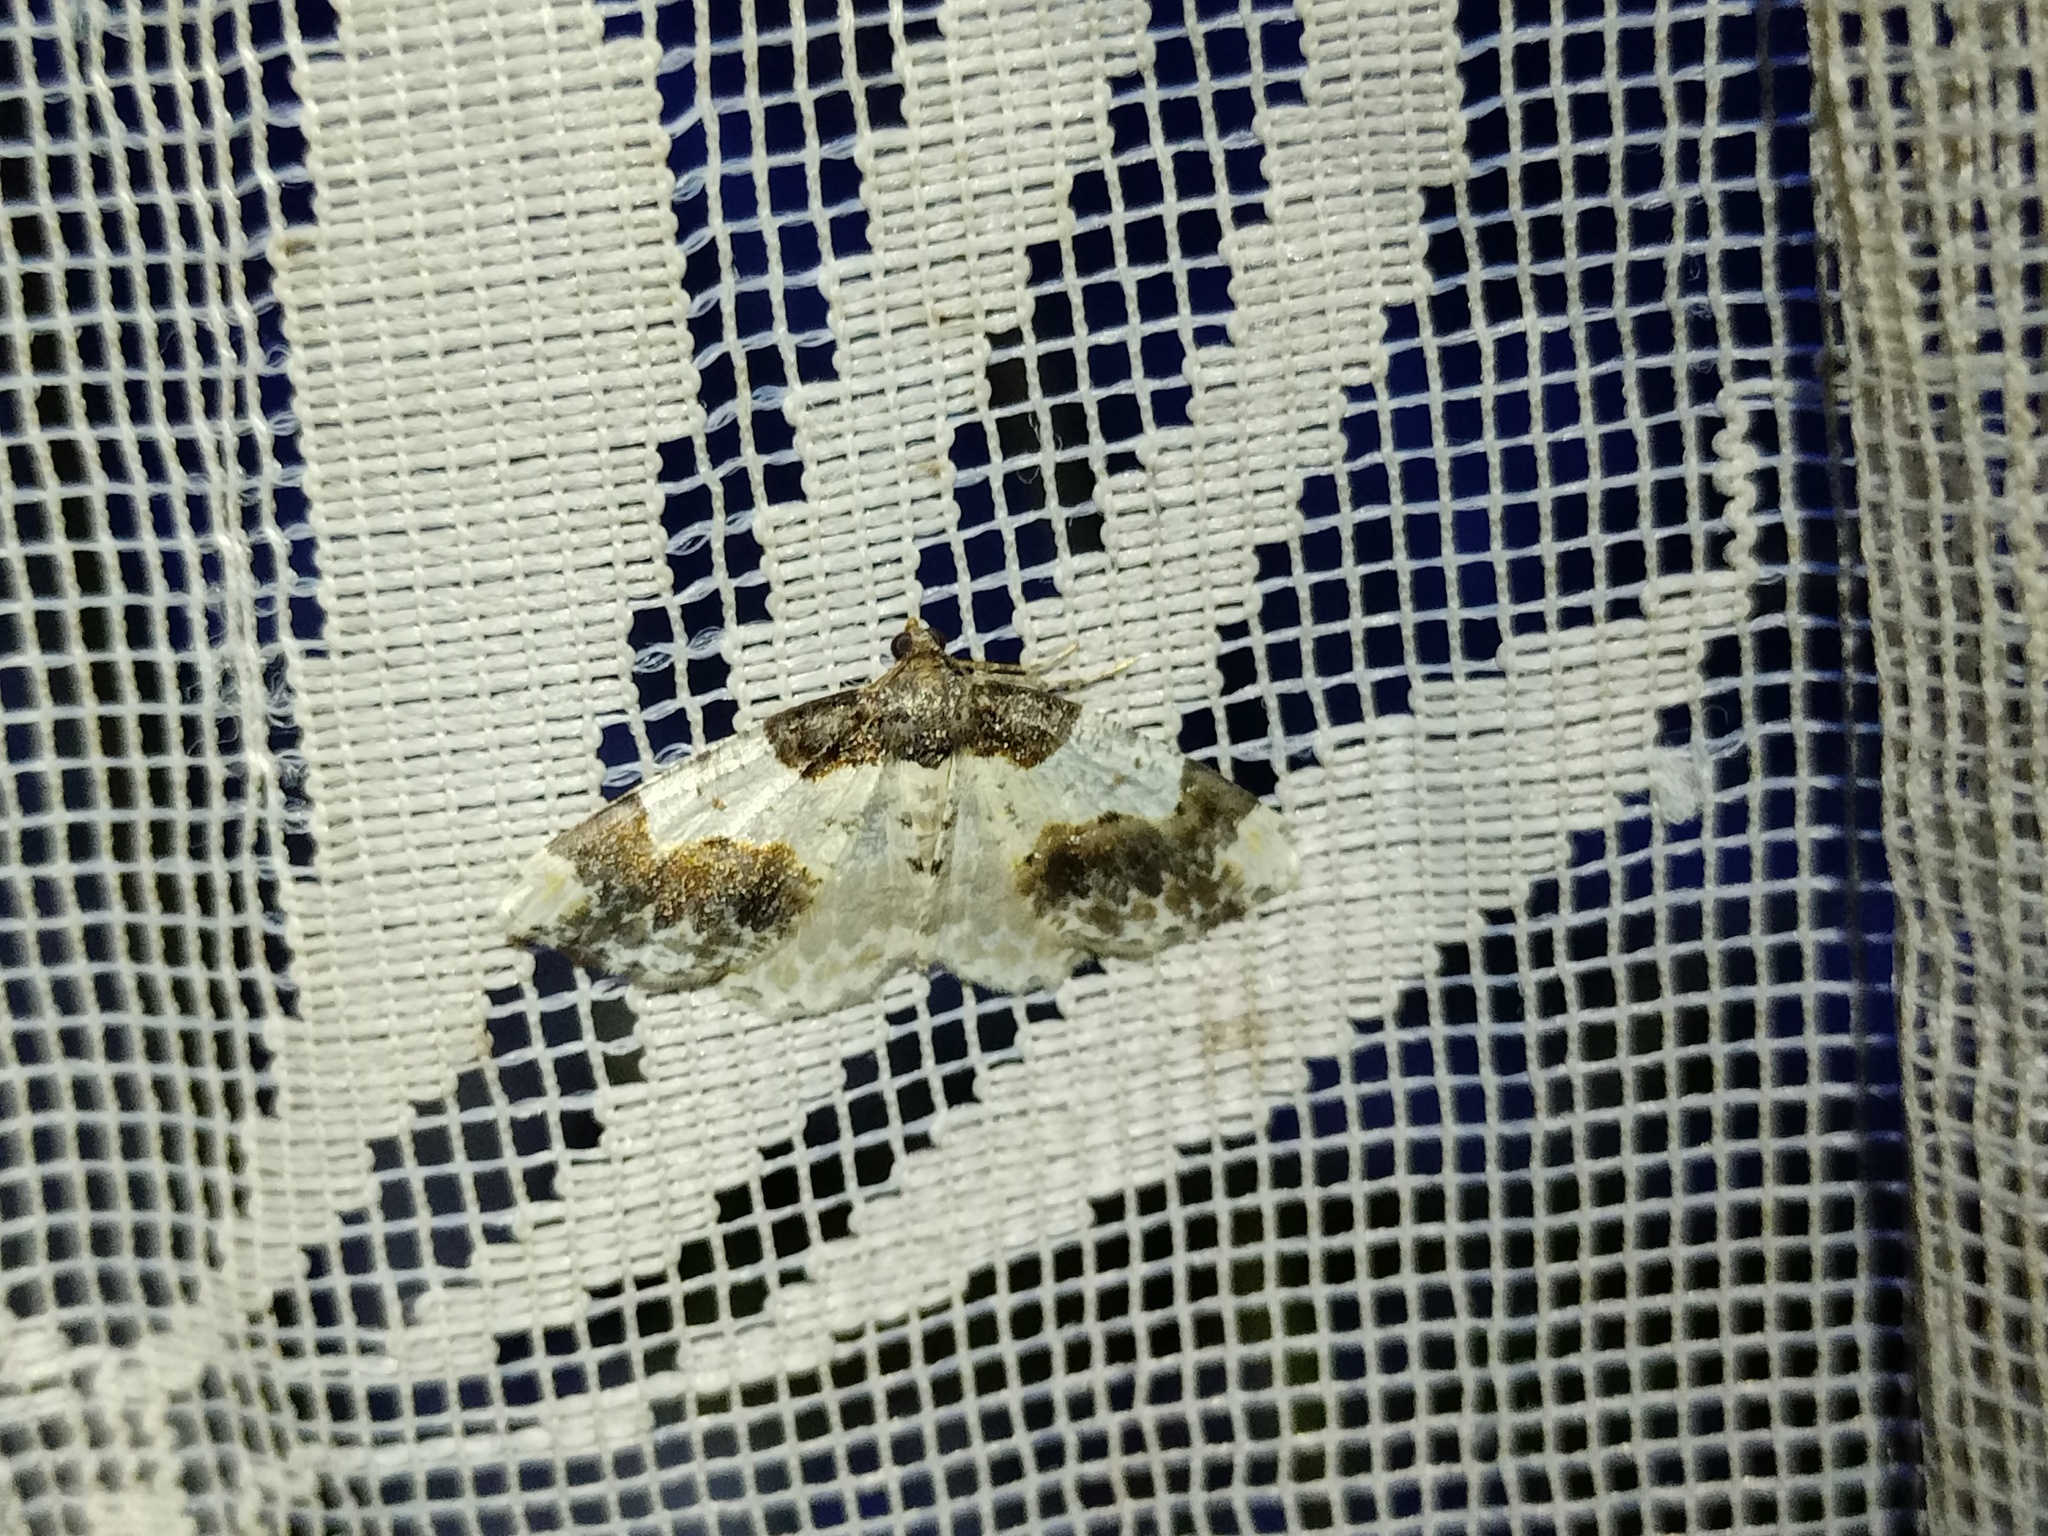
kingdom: Animalia
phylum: Arthropoda
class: Insecta
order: Lepidoptera
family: Geometridae
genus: Ligdia
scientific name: Ligdia adustata
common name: Scorched carpet
